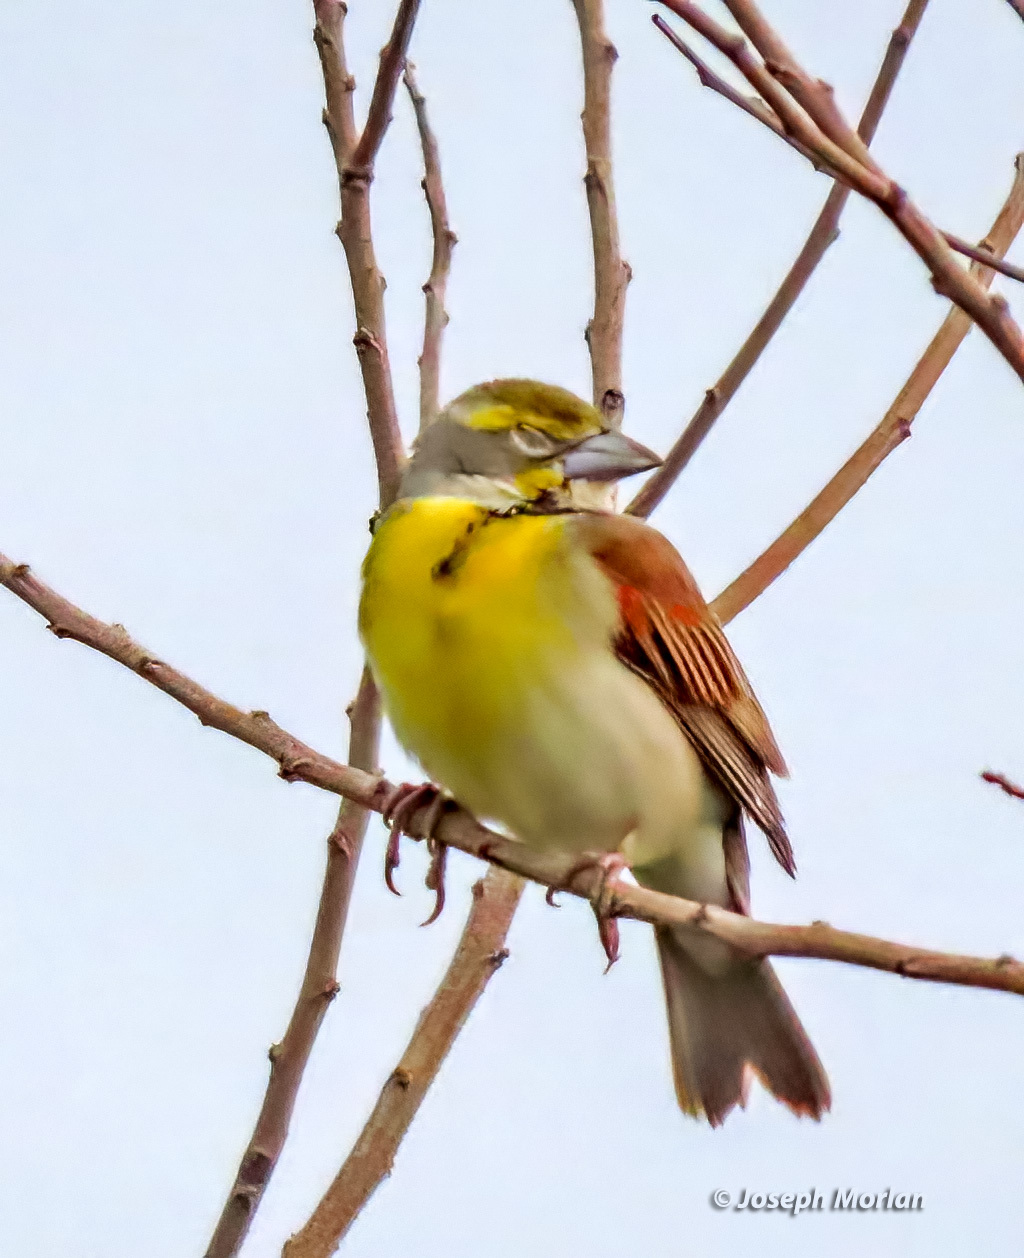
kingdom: Animalia
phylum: Chordata
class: Aves
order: Passeriformes
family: Cardinalidae
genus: Spiza
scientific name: Spiza americana
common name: Dickcissel
